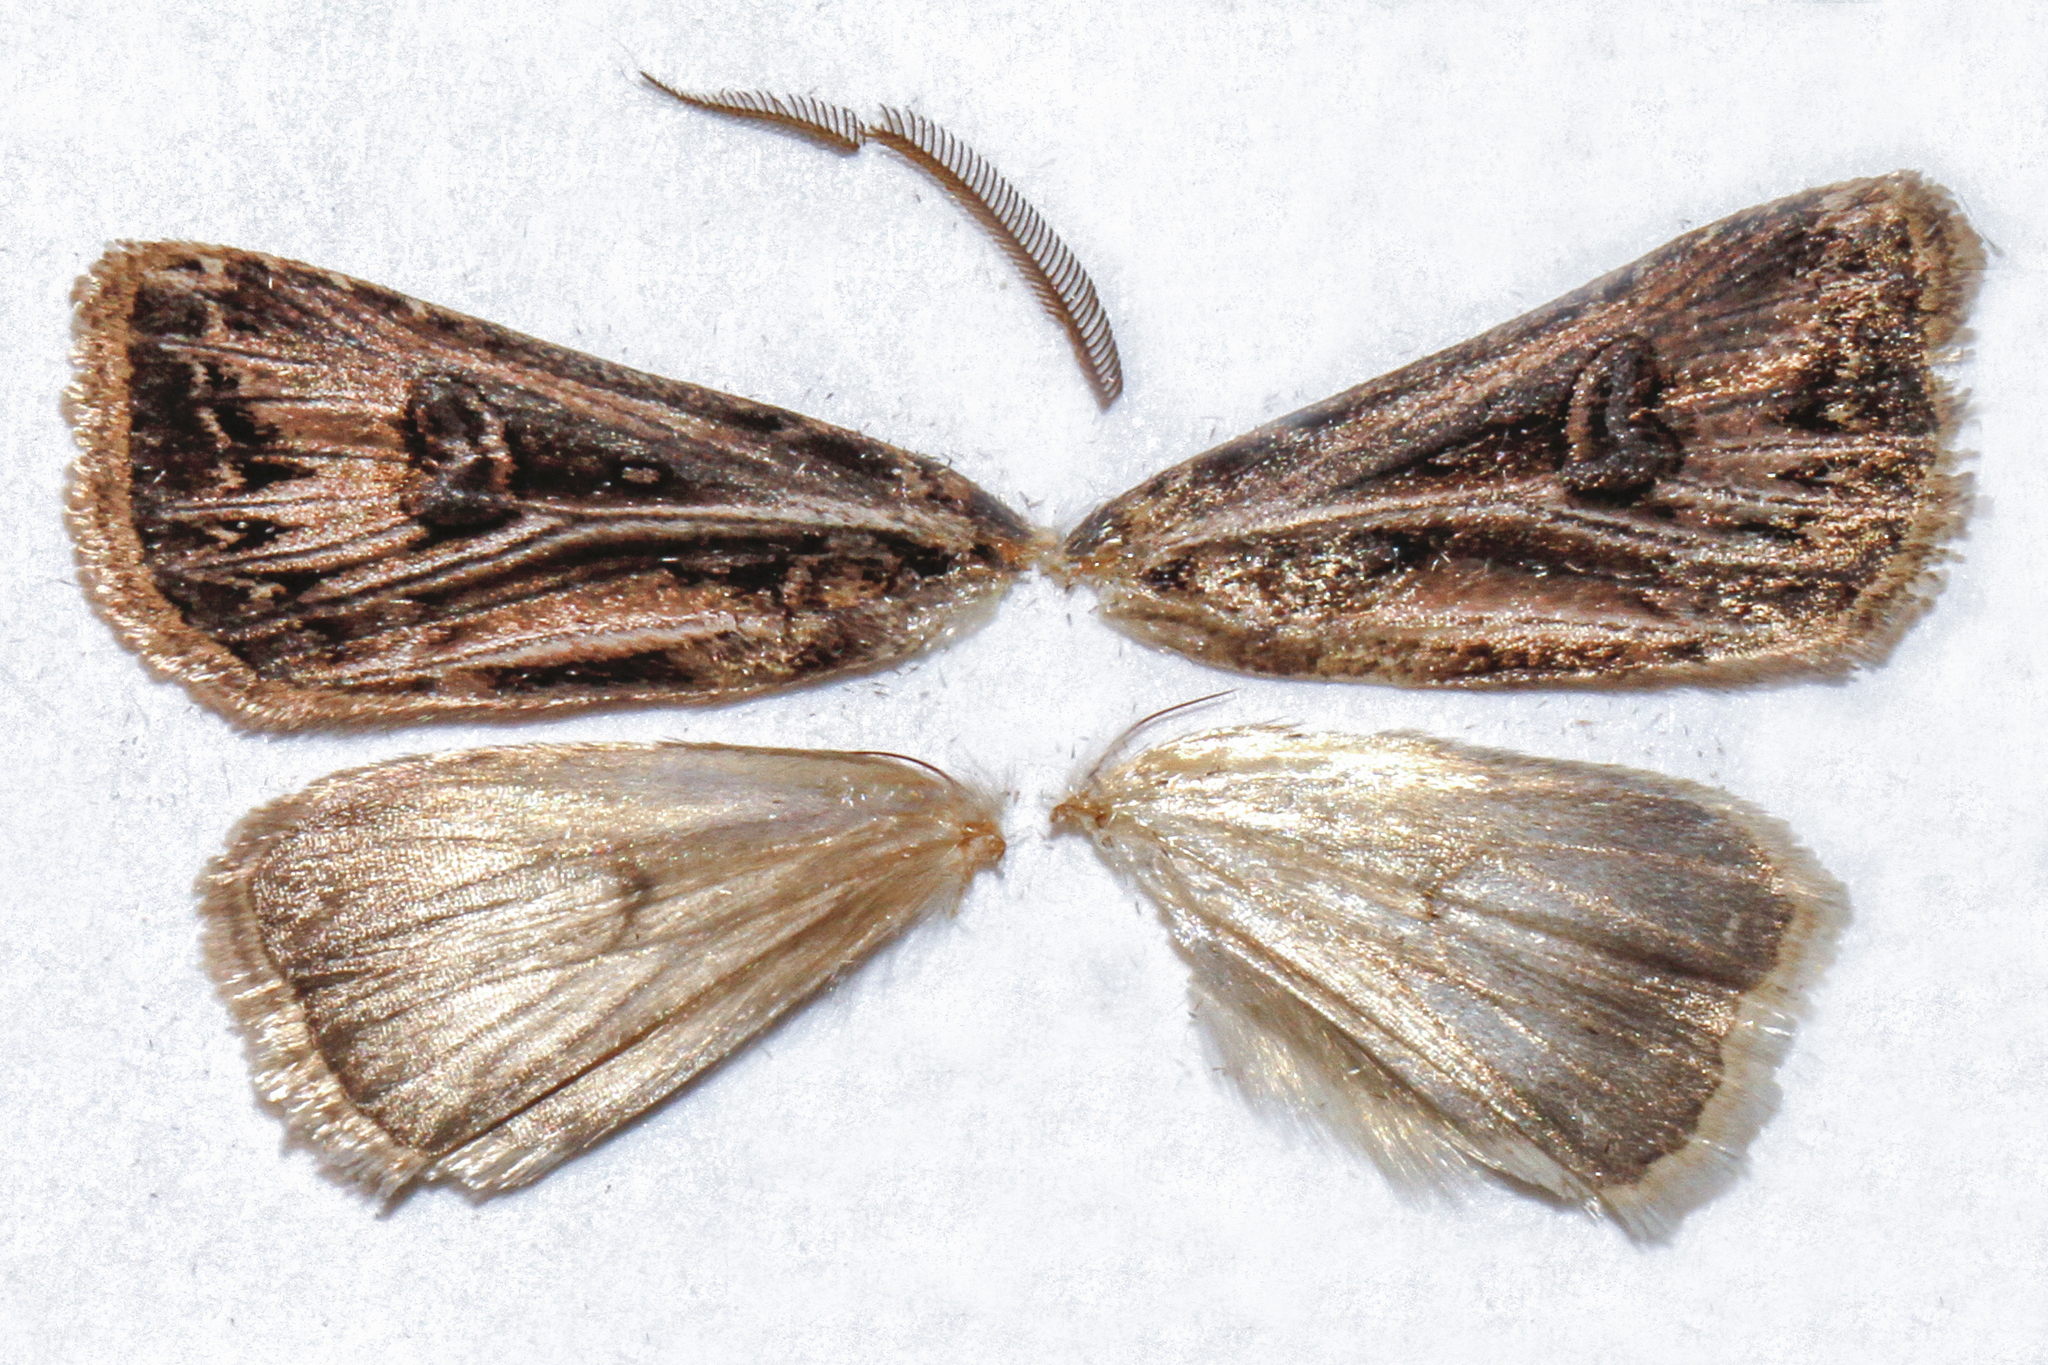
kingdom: Animalia
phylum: Arthropoda
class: Insecta
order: Lepidoptera
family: Noctuidae
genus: Agrotis
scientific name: Agrotis gladiaria
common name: Claybacked cutworm
